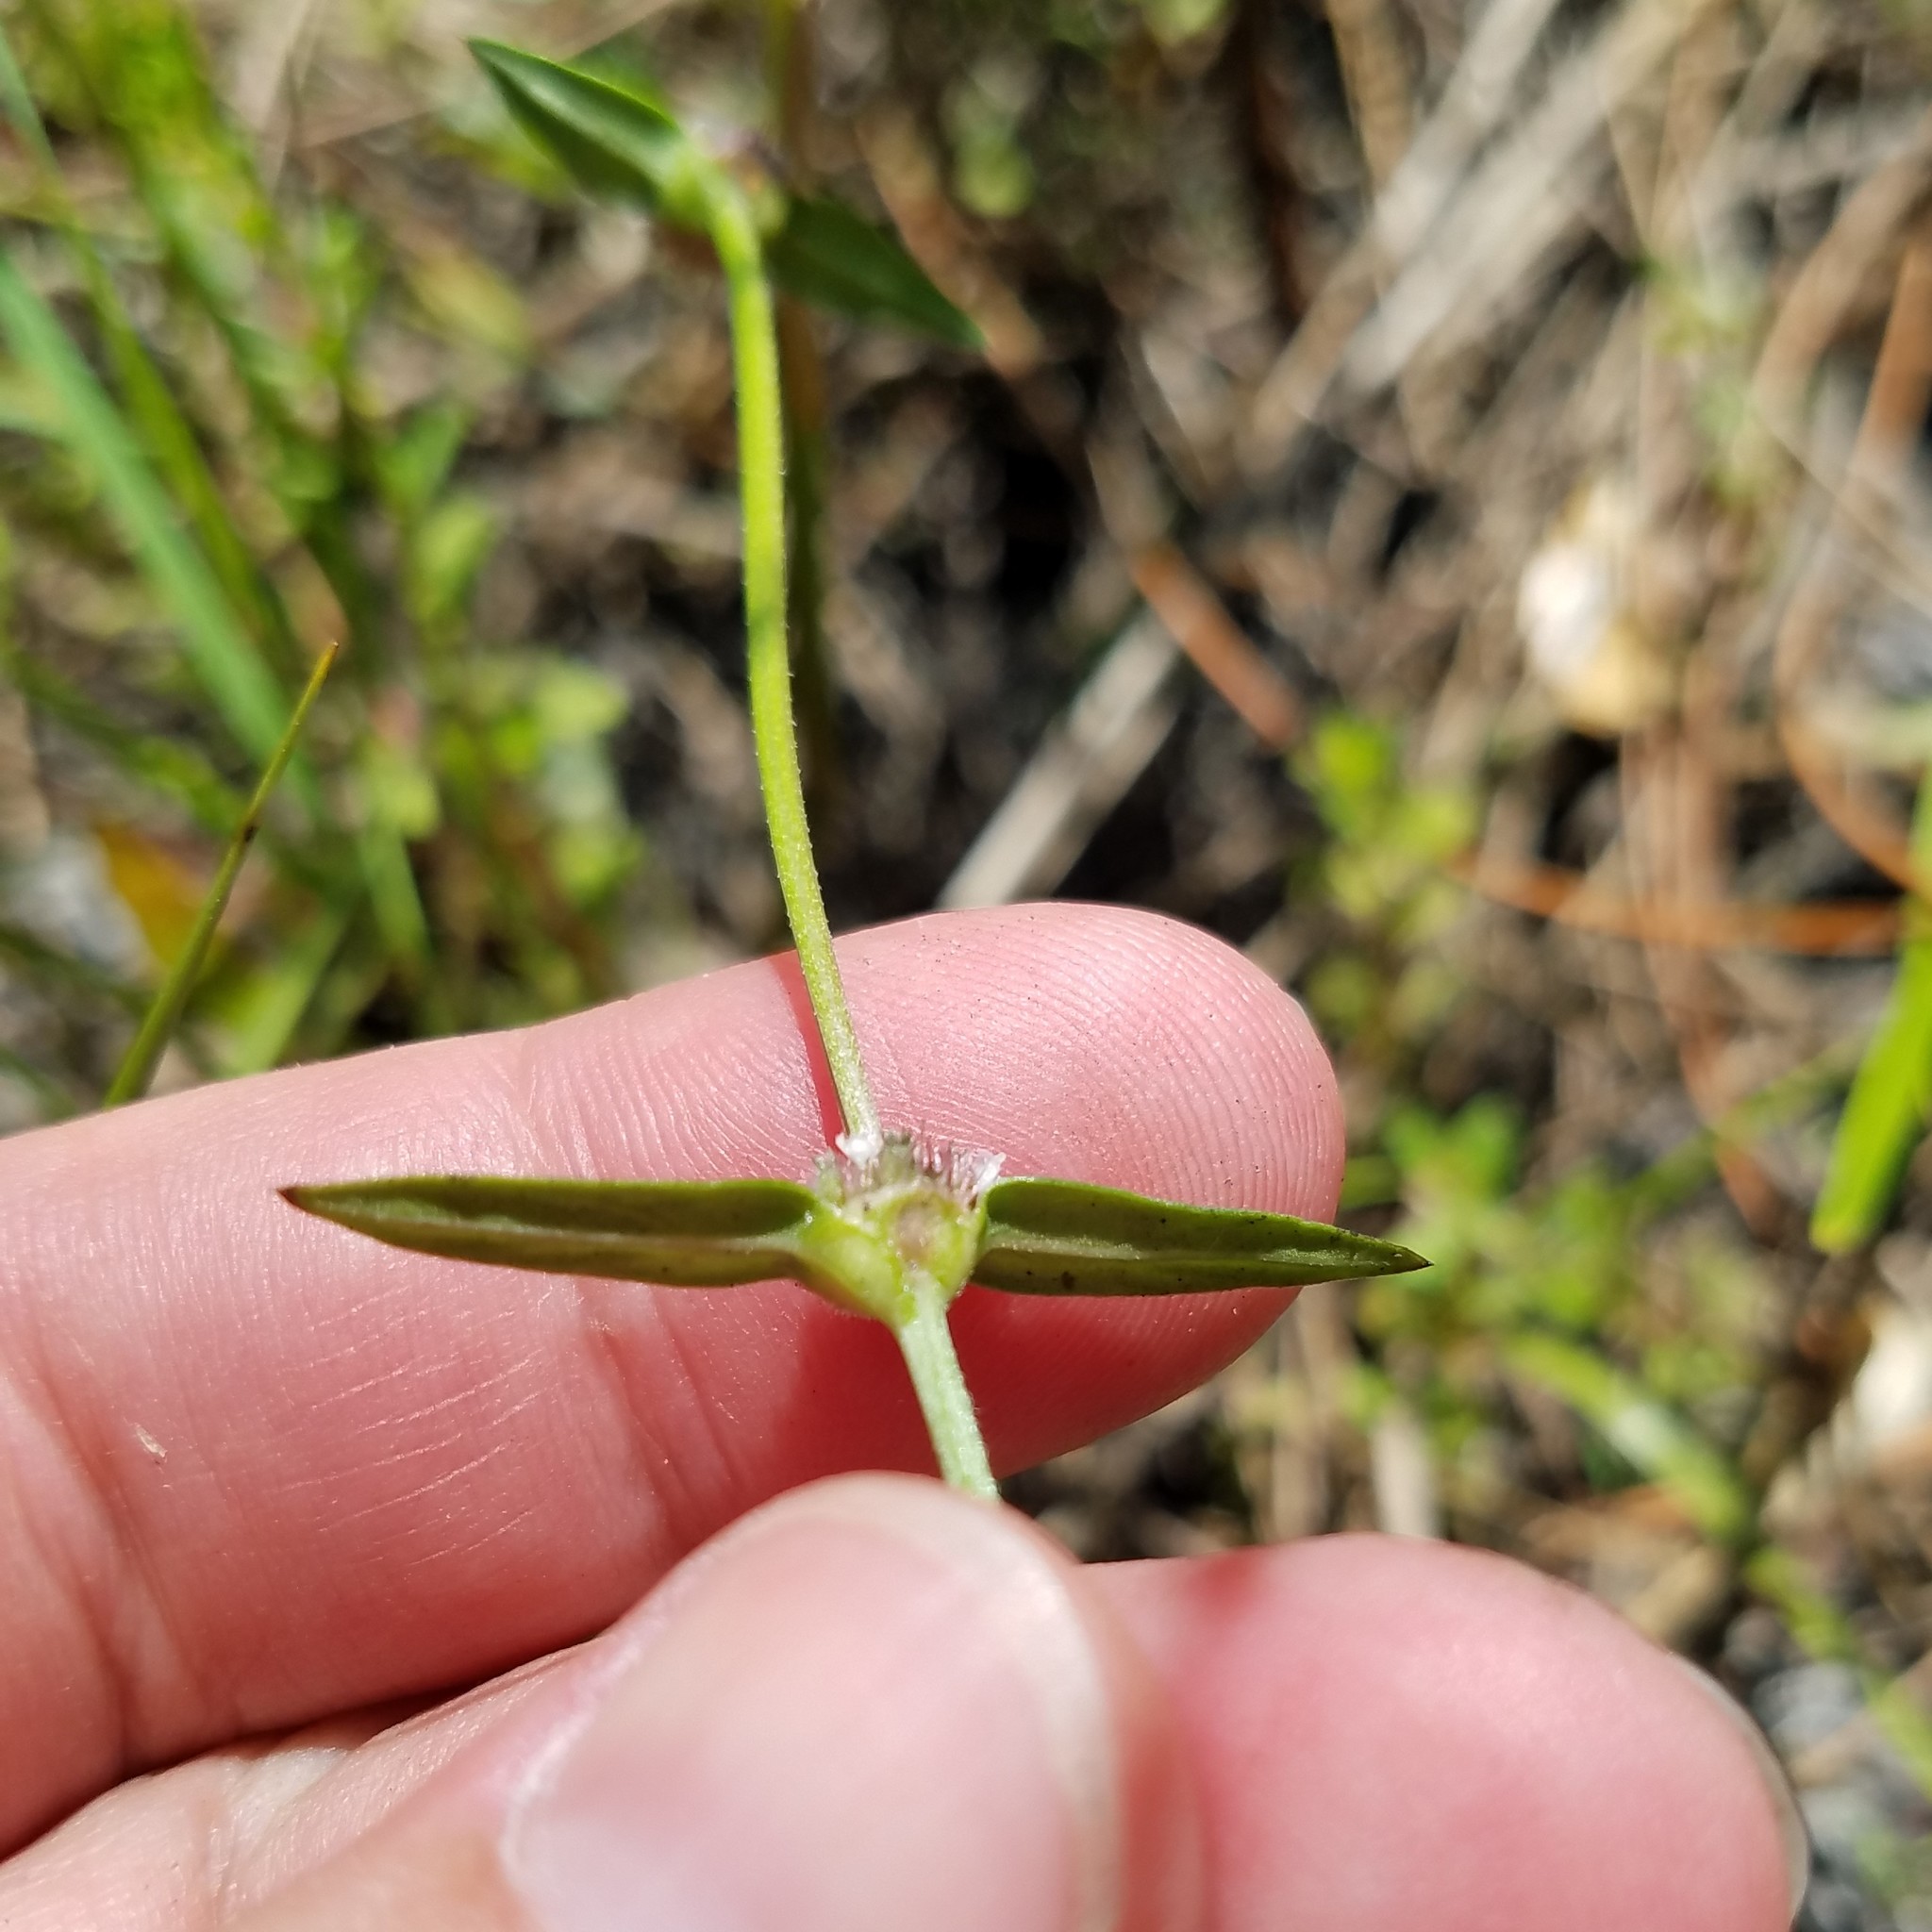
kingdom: Plantae
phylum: Tracheophyta
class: Magnoliopsida
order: Gentianales
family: Rubiaceae
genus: Spermacoce
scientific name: Spermacoce remota
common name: Woodland false buttonweed
